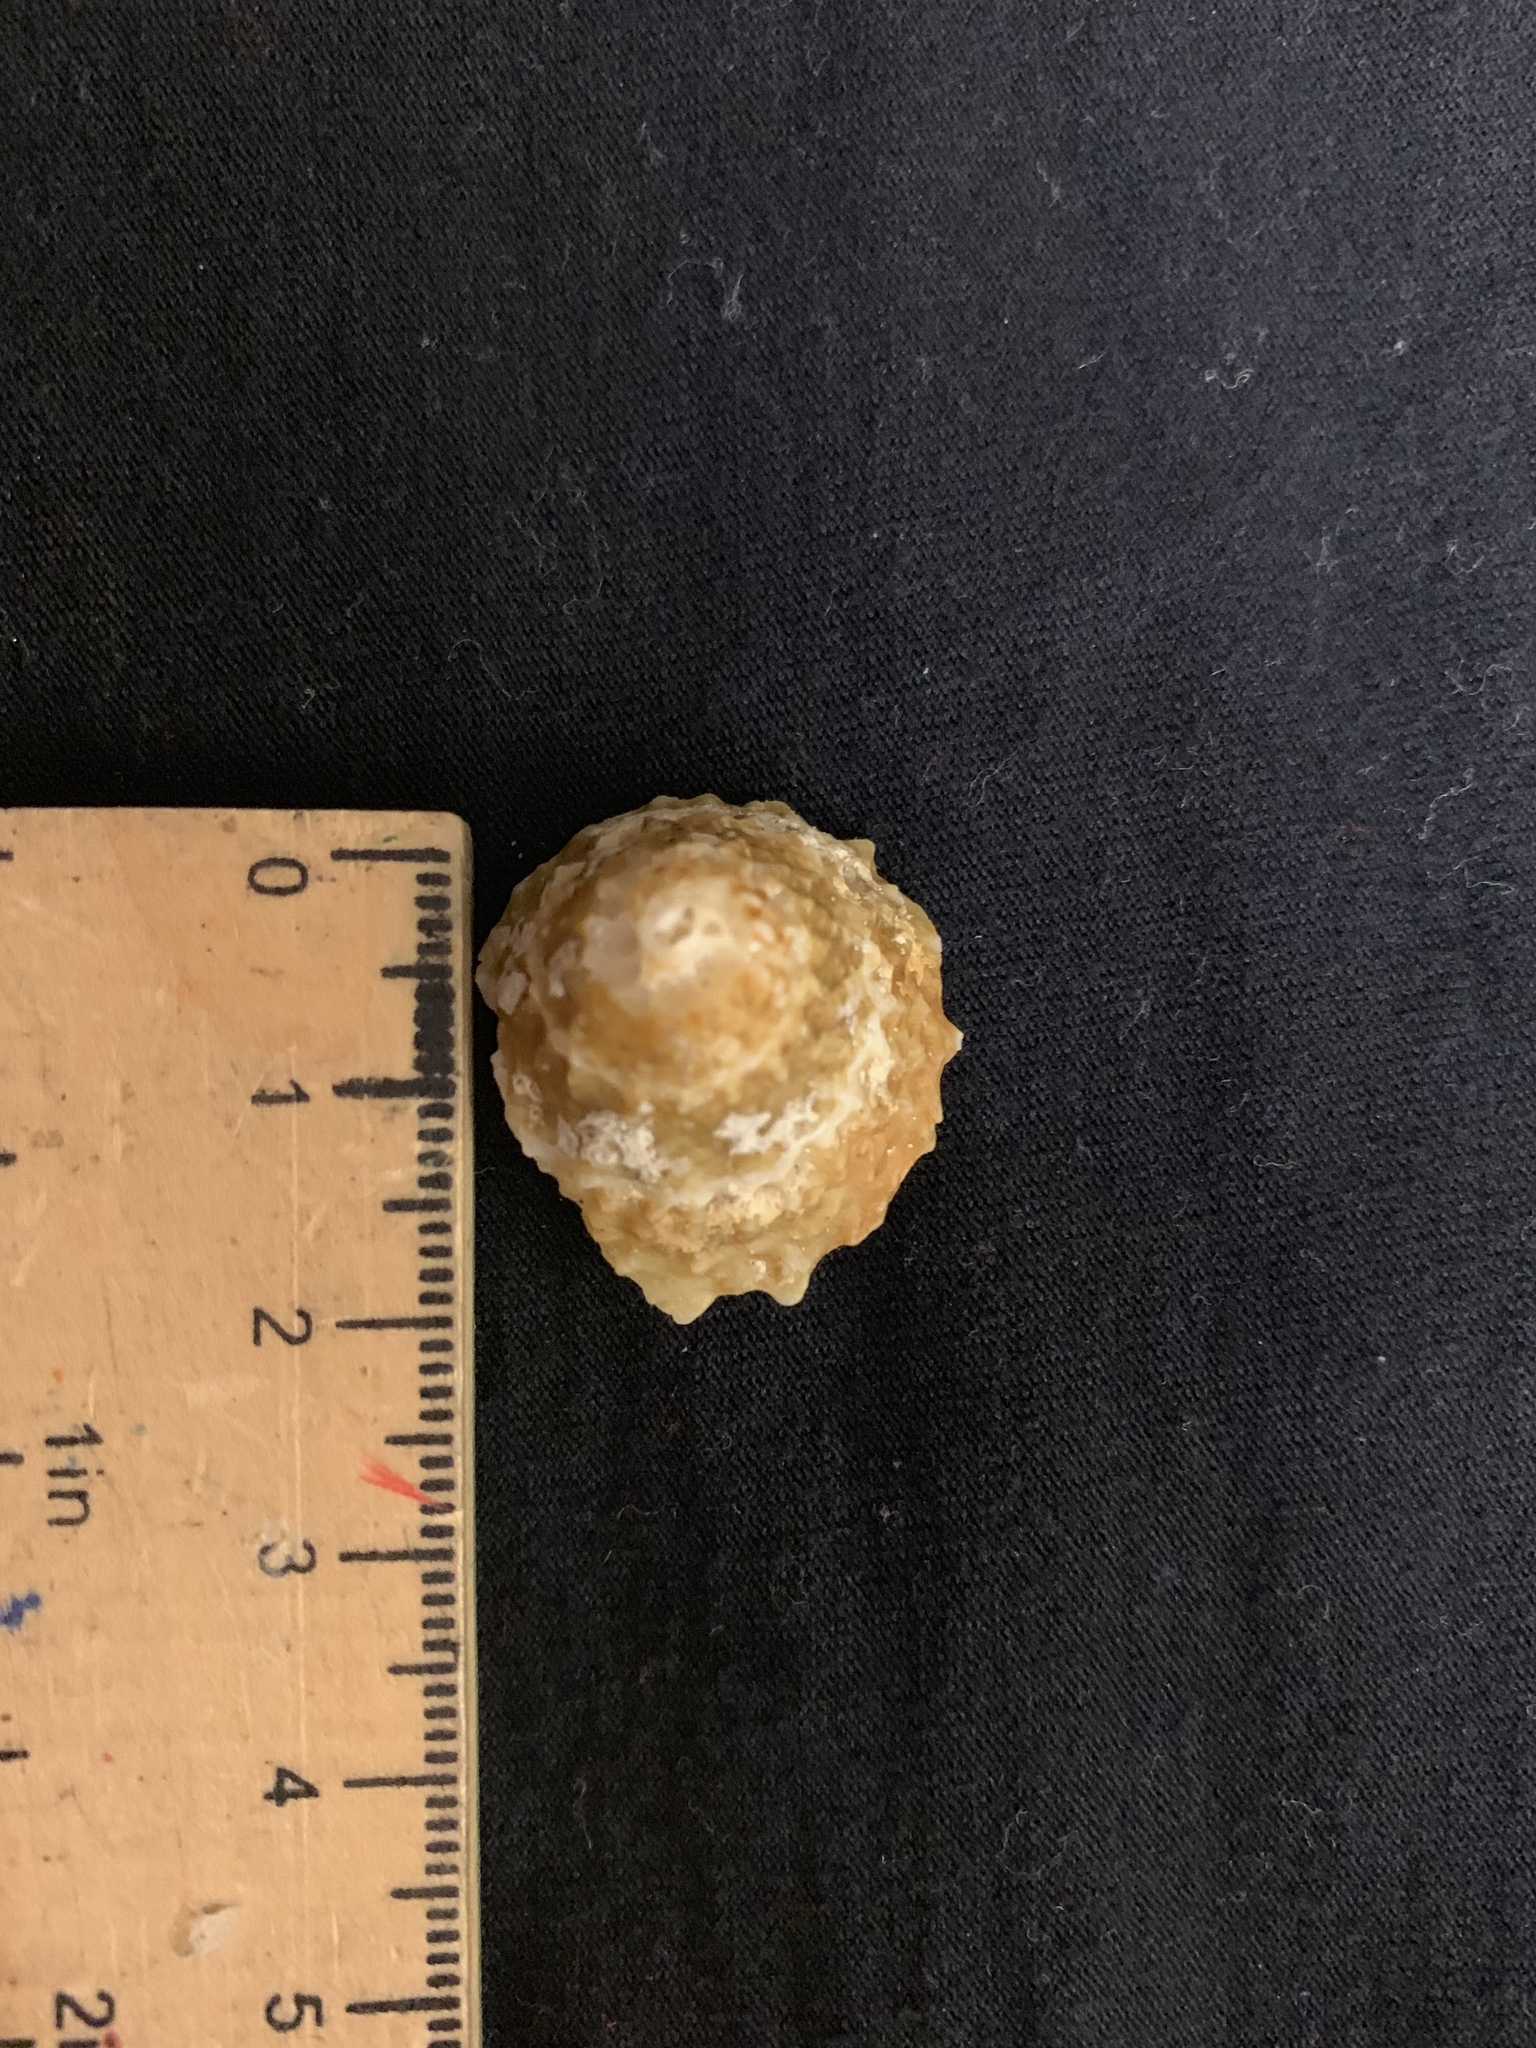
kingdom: Animalia
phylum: Mollusca
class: Gastropoda
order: Trochida
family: Turbinidae
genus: Lithopoma
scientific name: Lithopoma phoebium
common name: Long-spined starsnail
